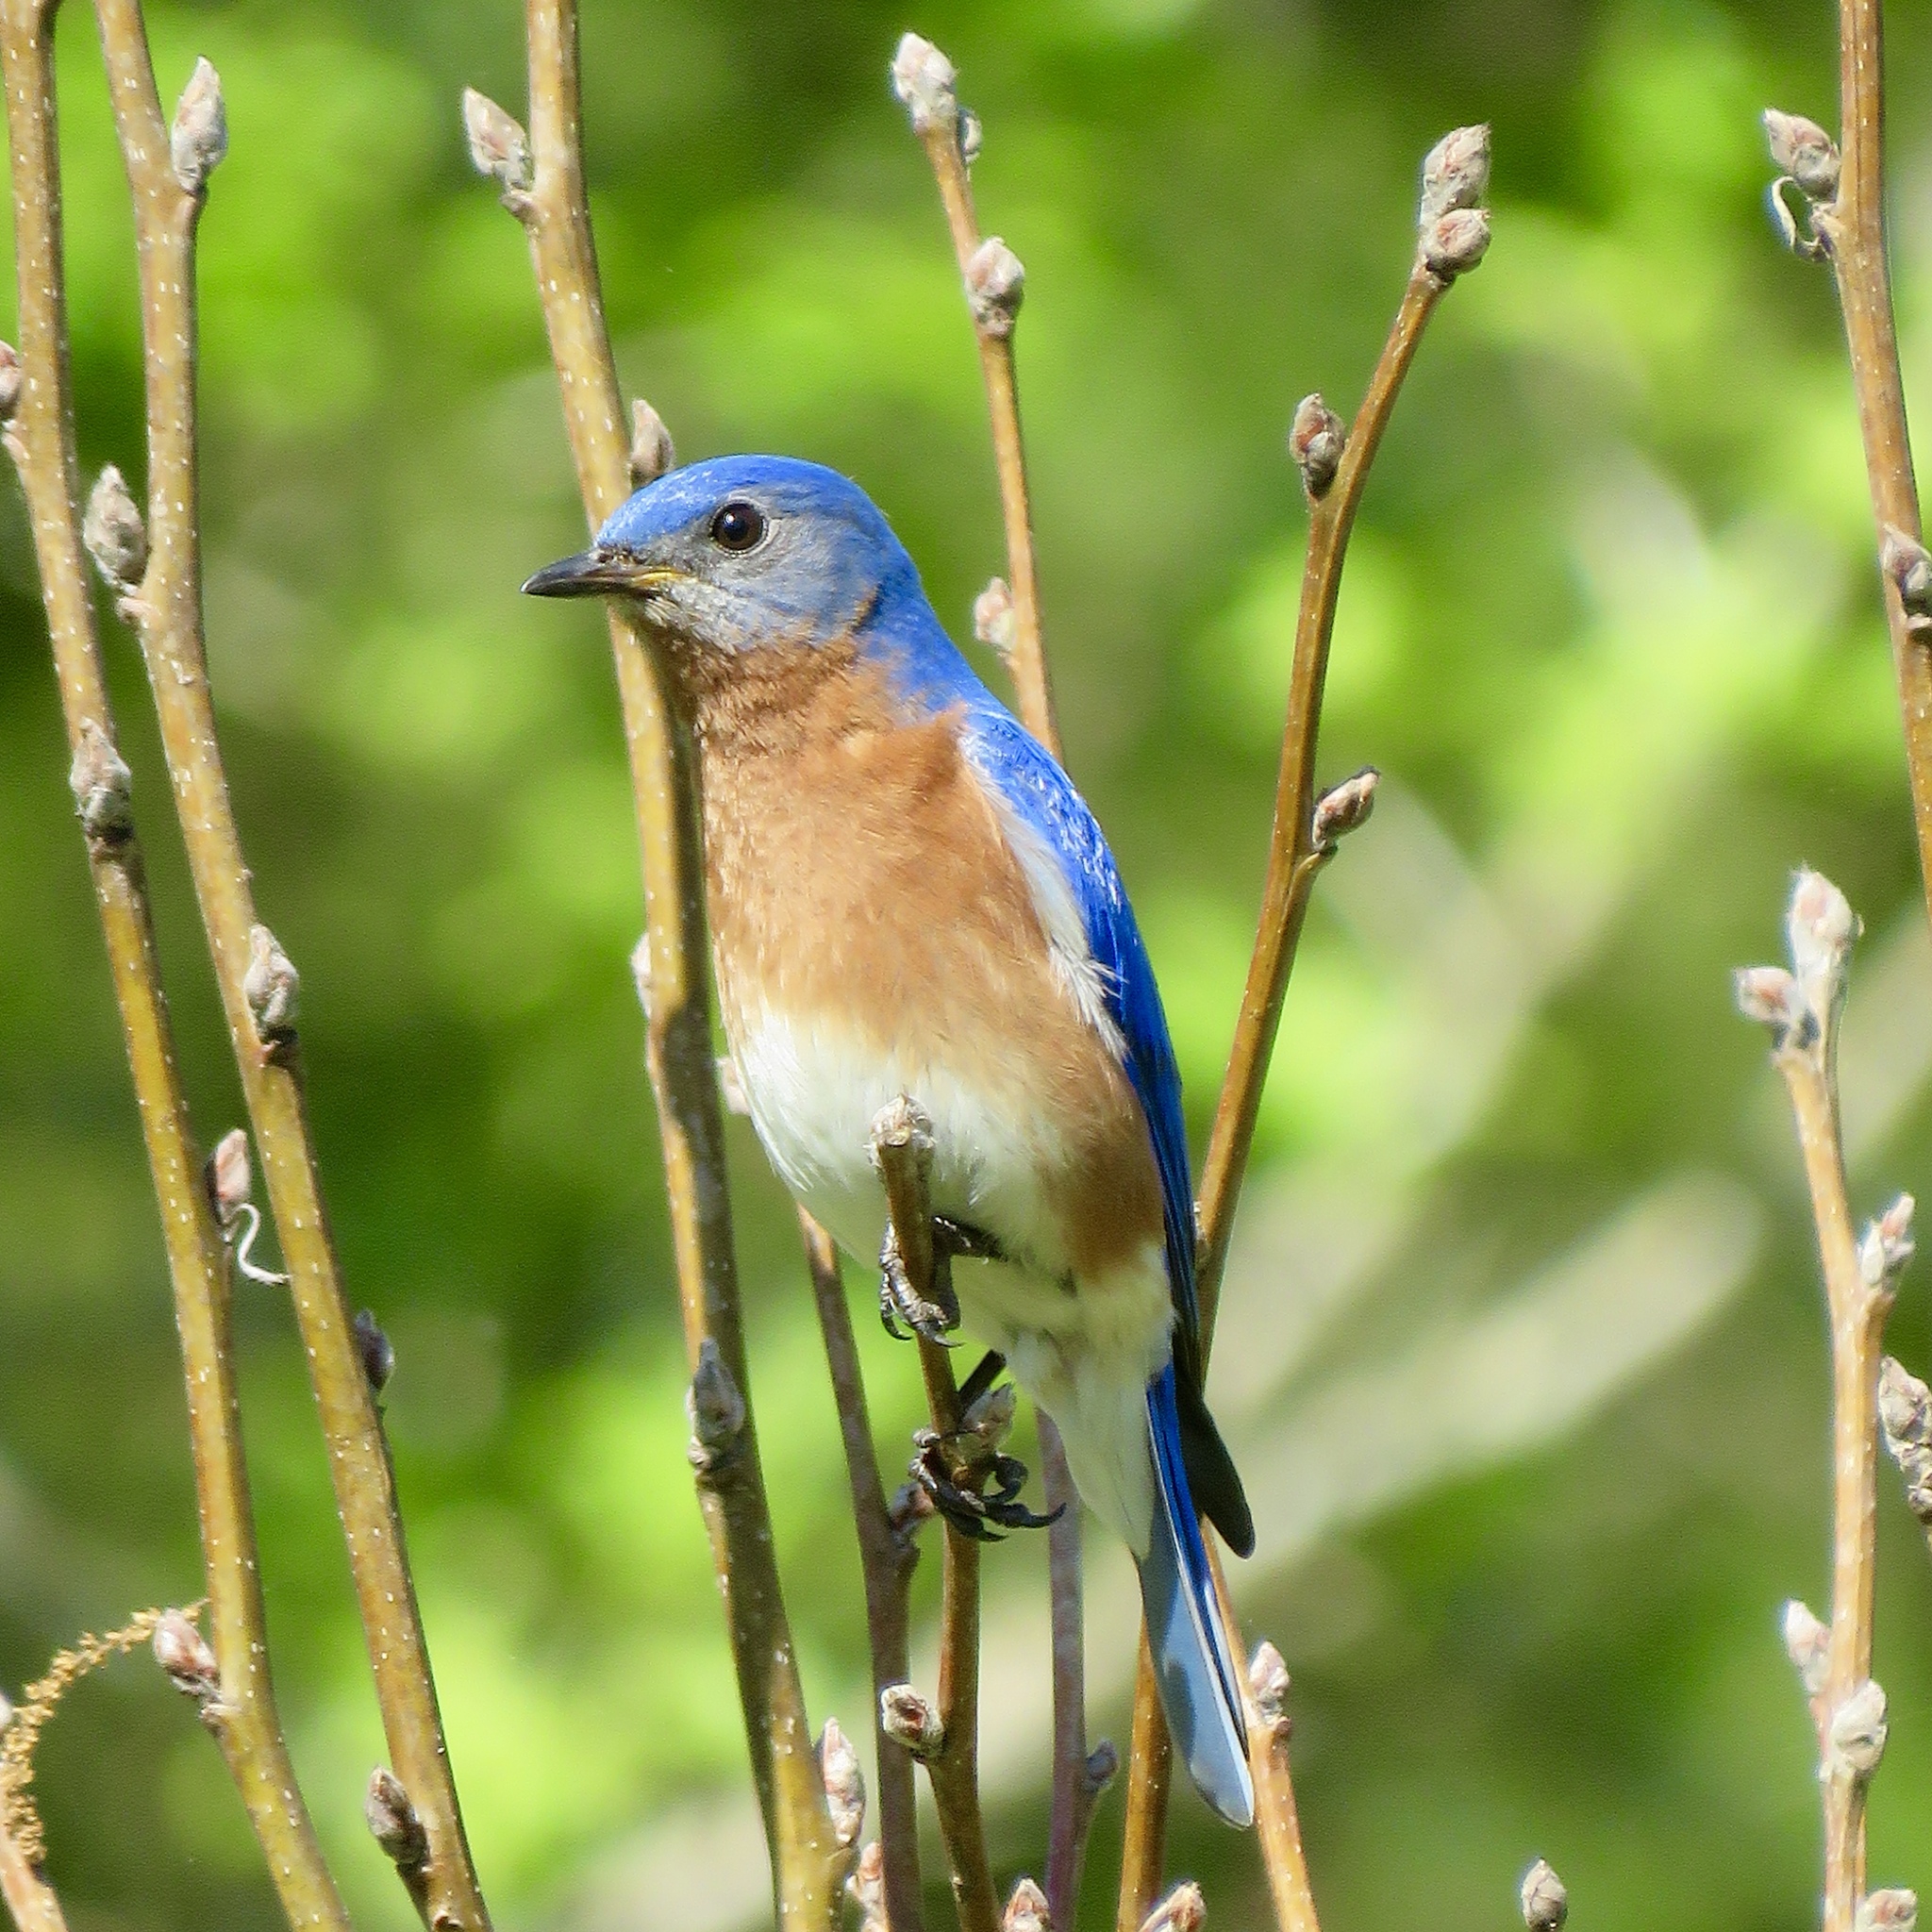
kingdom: Animalia
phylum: Chordata
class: Aves
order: Passeriformes
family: Turdidae
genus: Sialia
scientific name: Sialia sialis
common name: Eastern bluebird
